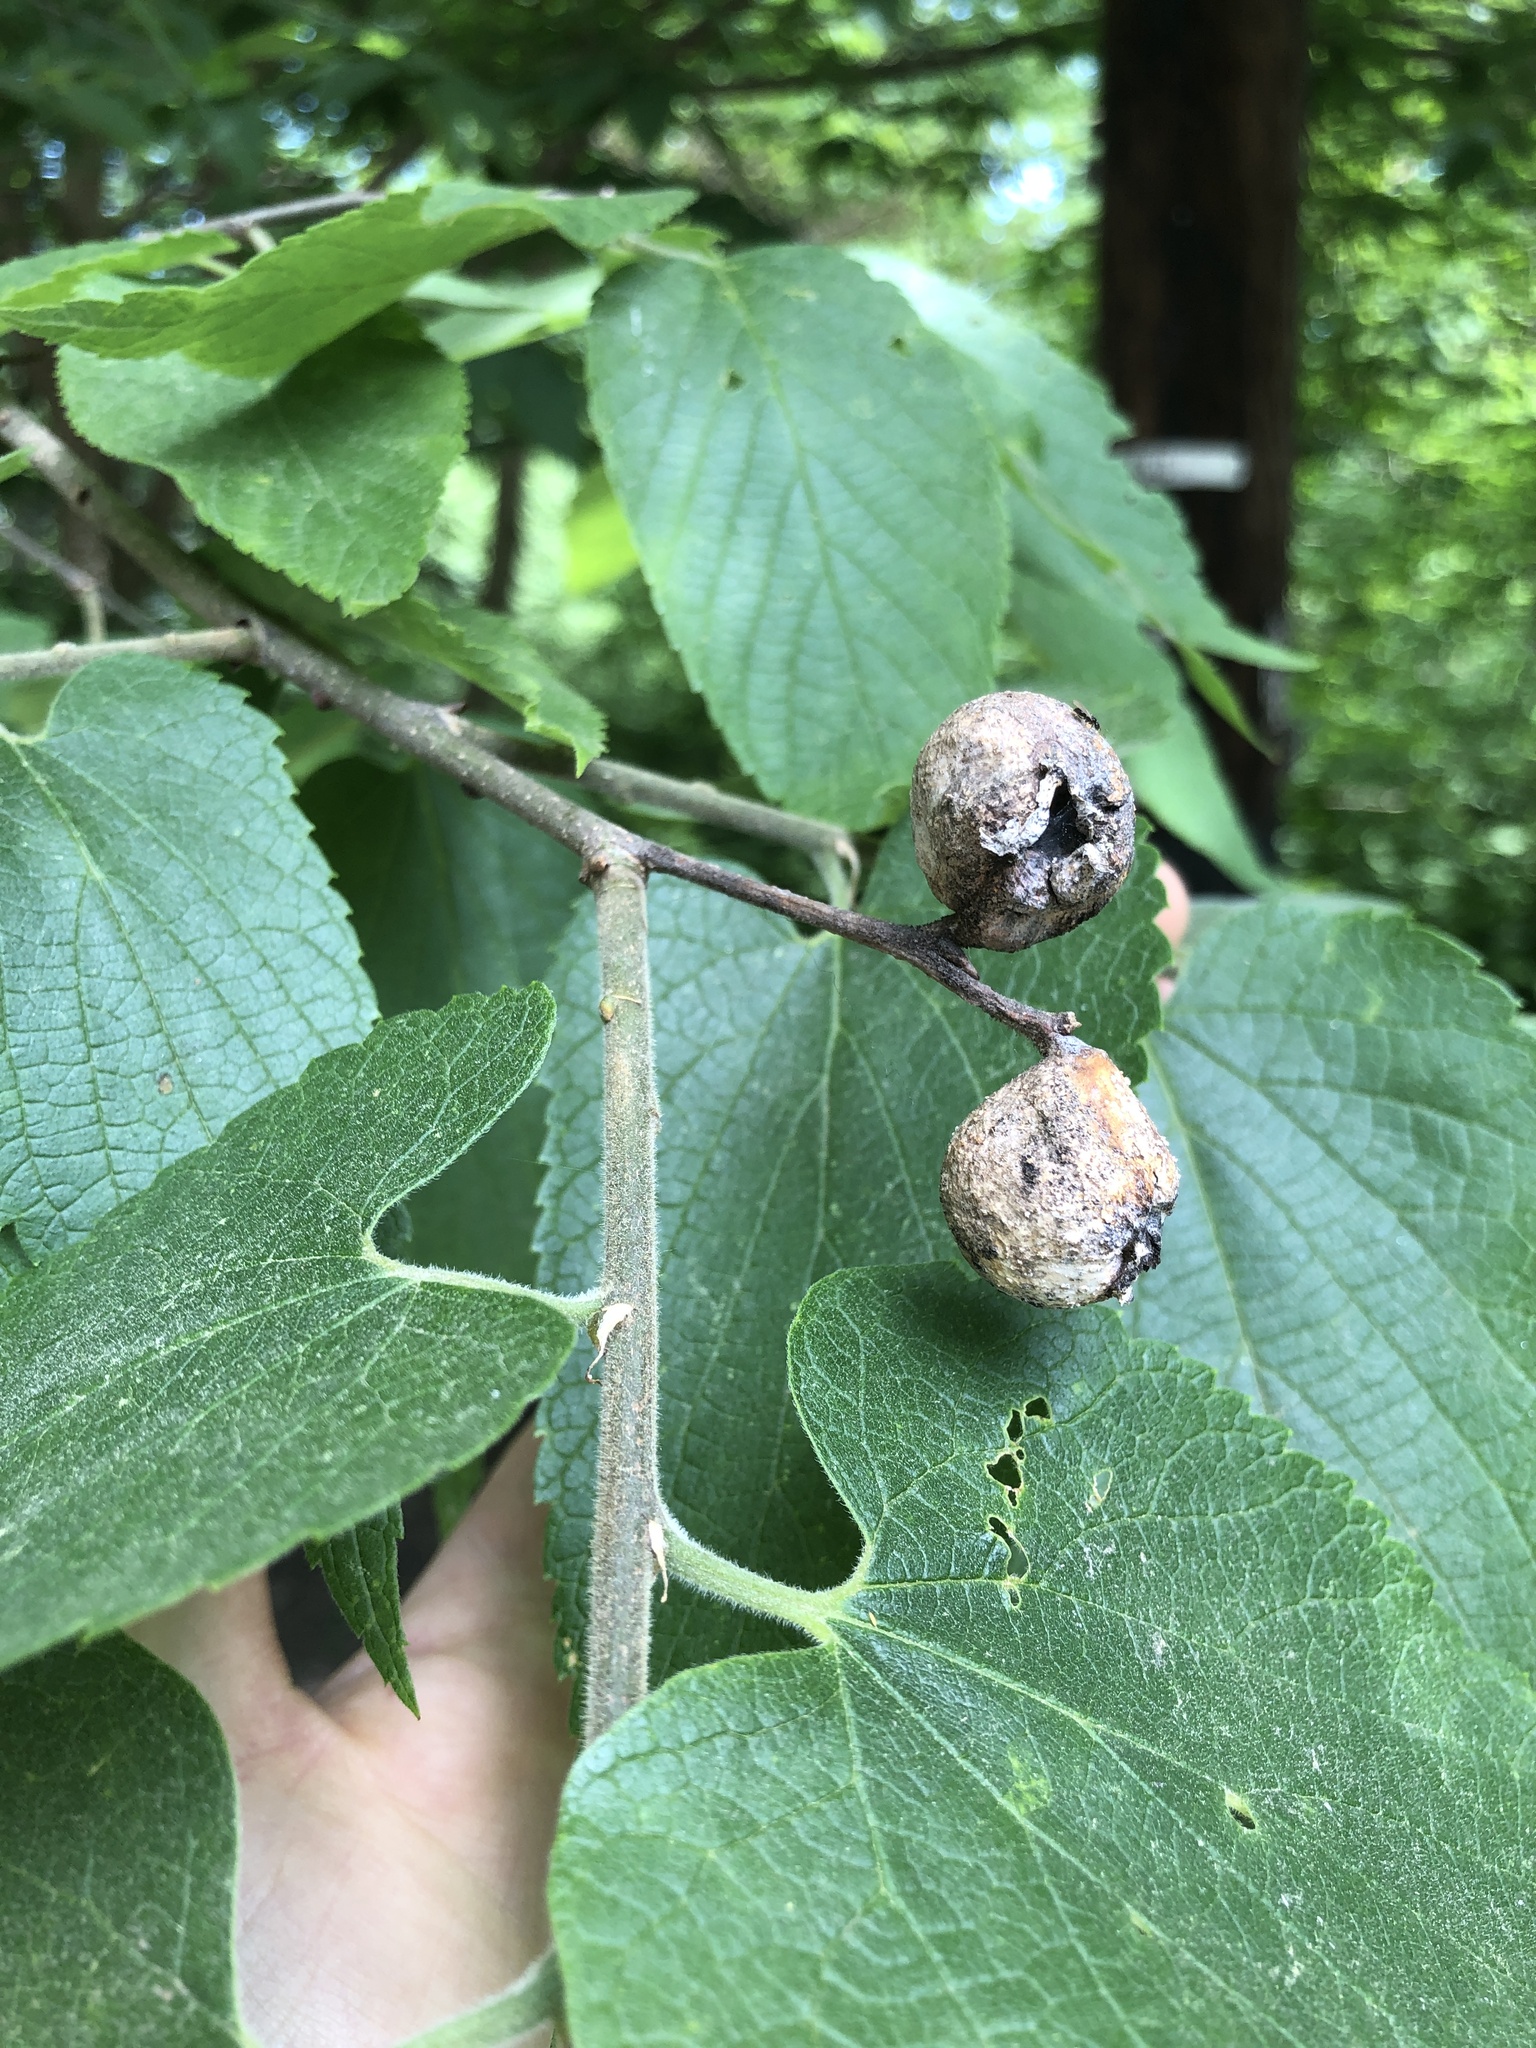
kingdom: Animalia
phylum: Arthropoda
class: Insecta
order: Hemiptera
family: Aphalaridae
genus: Pachypsylla
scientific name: Pachypsylla venusta
